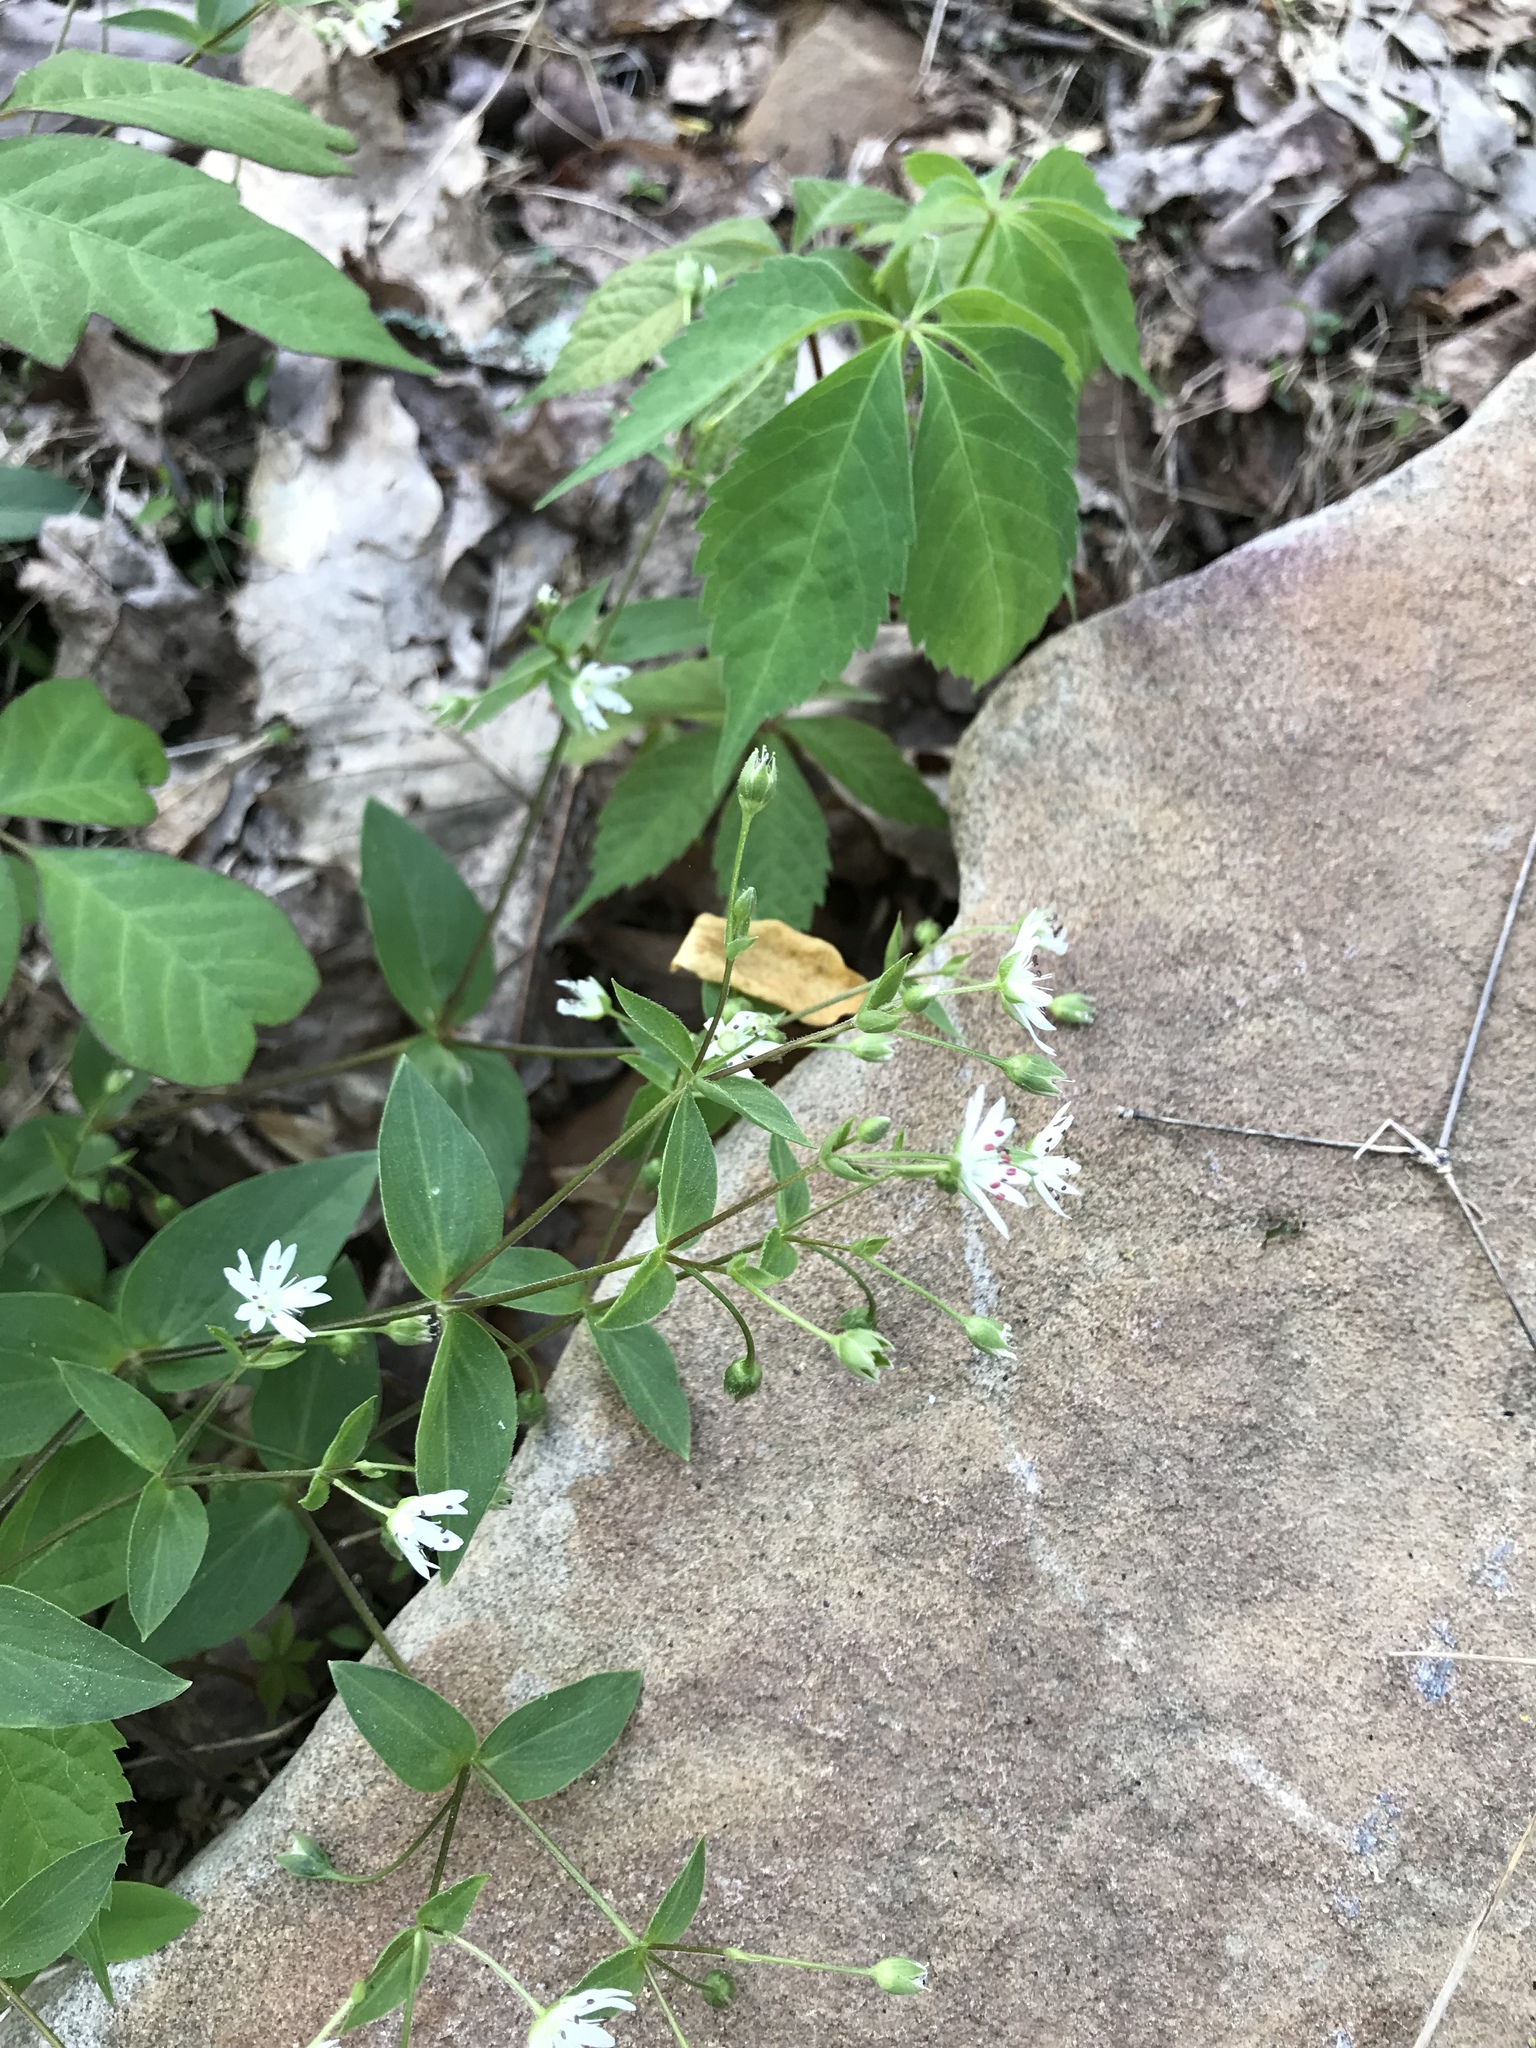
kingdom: Plantae
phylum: Tracheophyta
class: Magnoliopsida
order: Caryophyllales
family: Caryophyllaceae
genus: Stellaria
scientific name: Stellaria pubera
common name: Star chickweed
